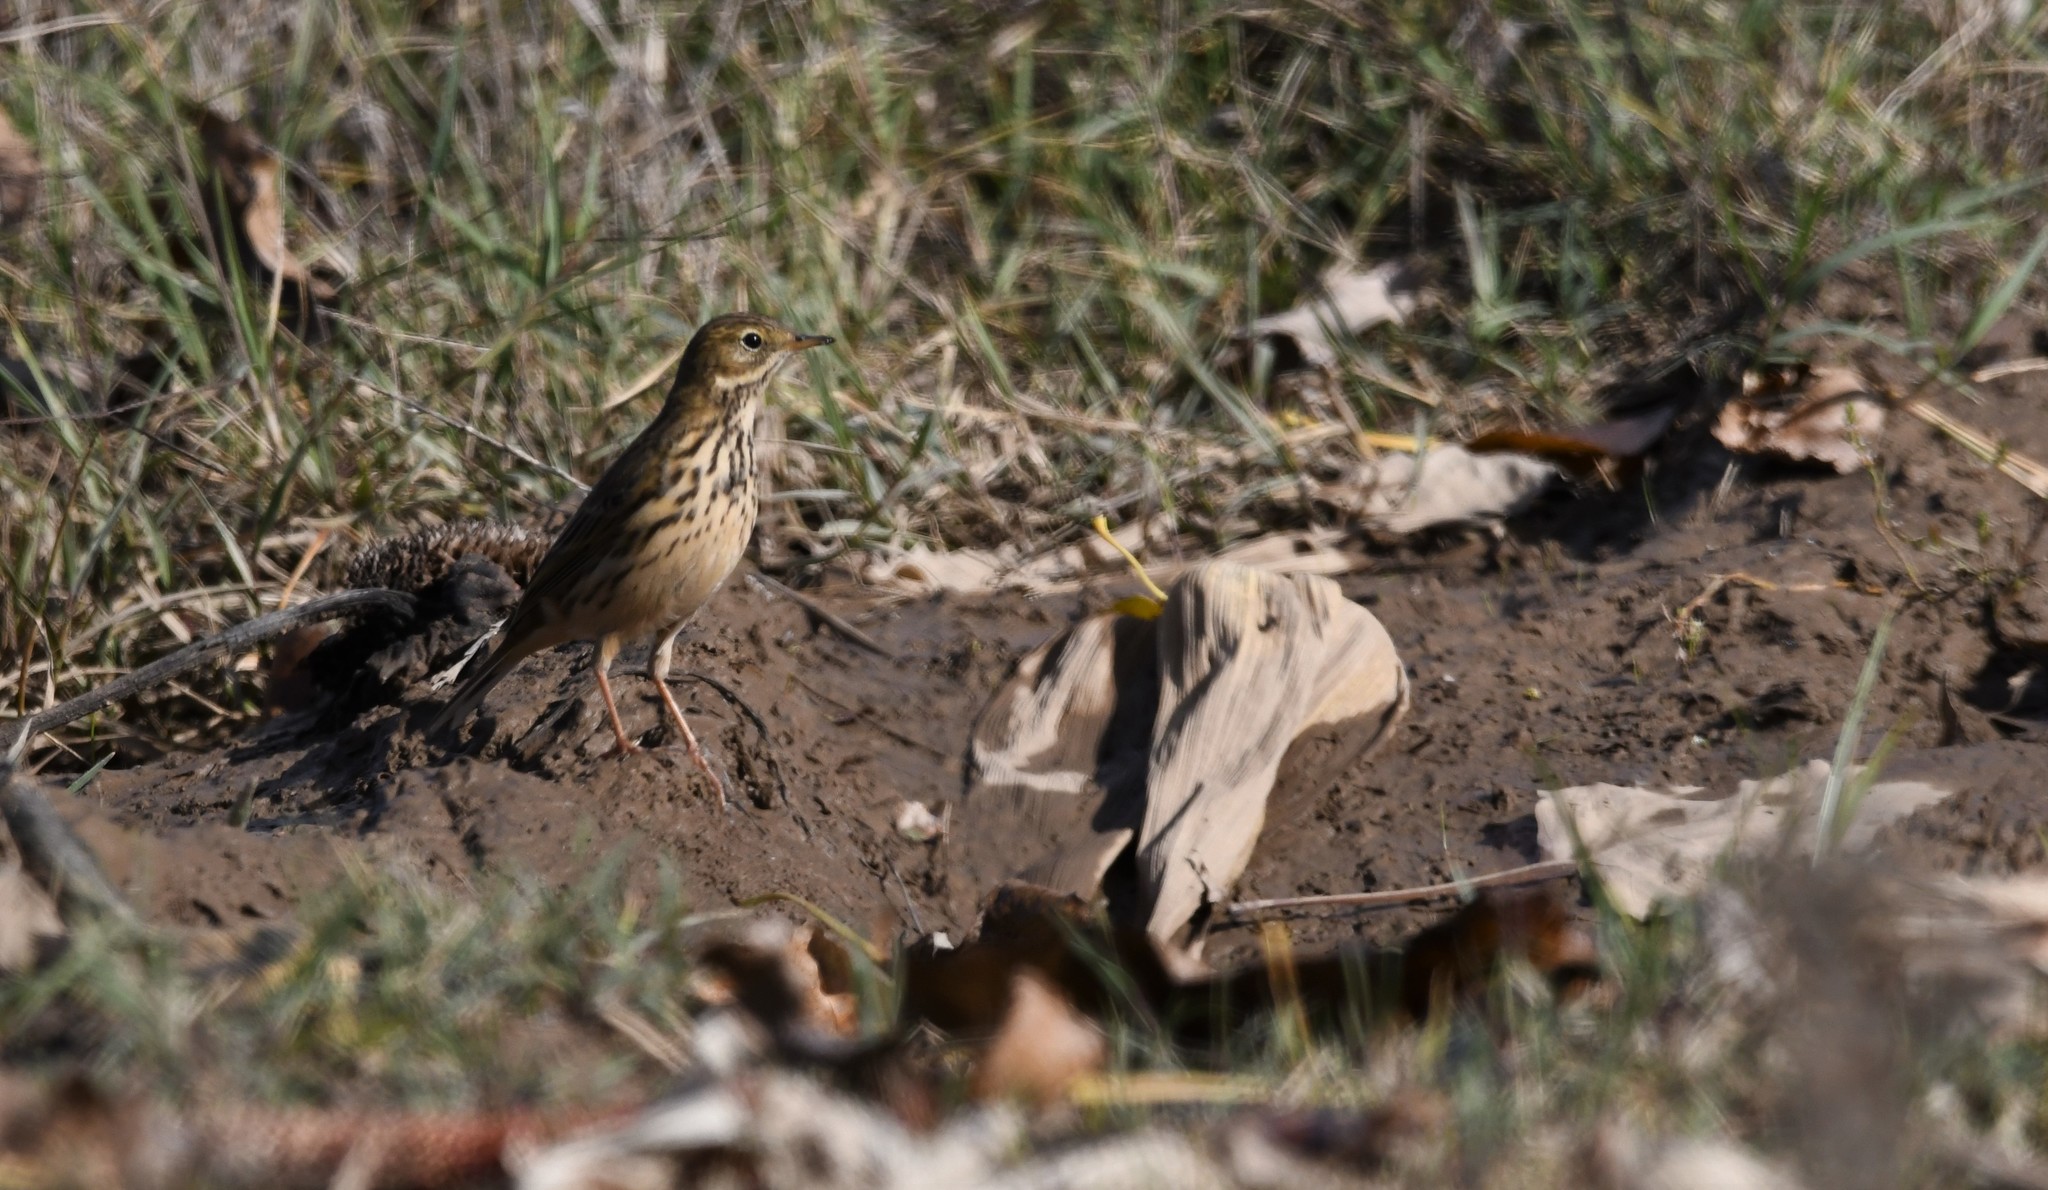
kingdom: Animalia
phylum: Chordata
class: Aves
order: Passeriformes
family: Motacillidae
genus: Anthus
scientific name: Anthus pratensis
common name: Meadow pipit
